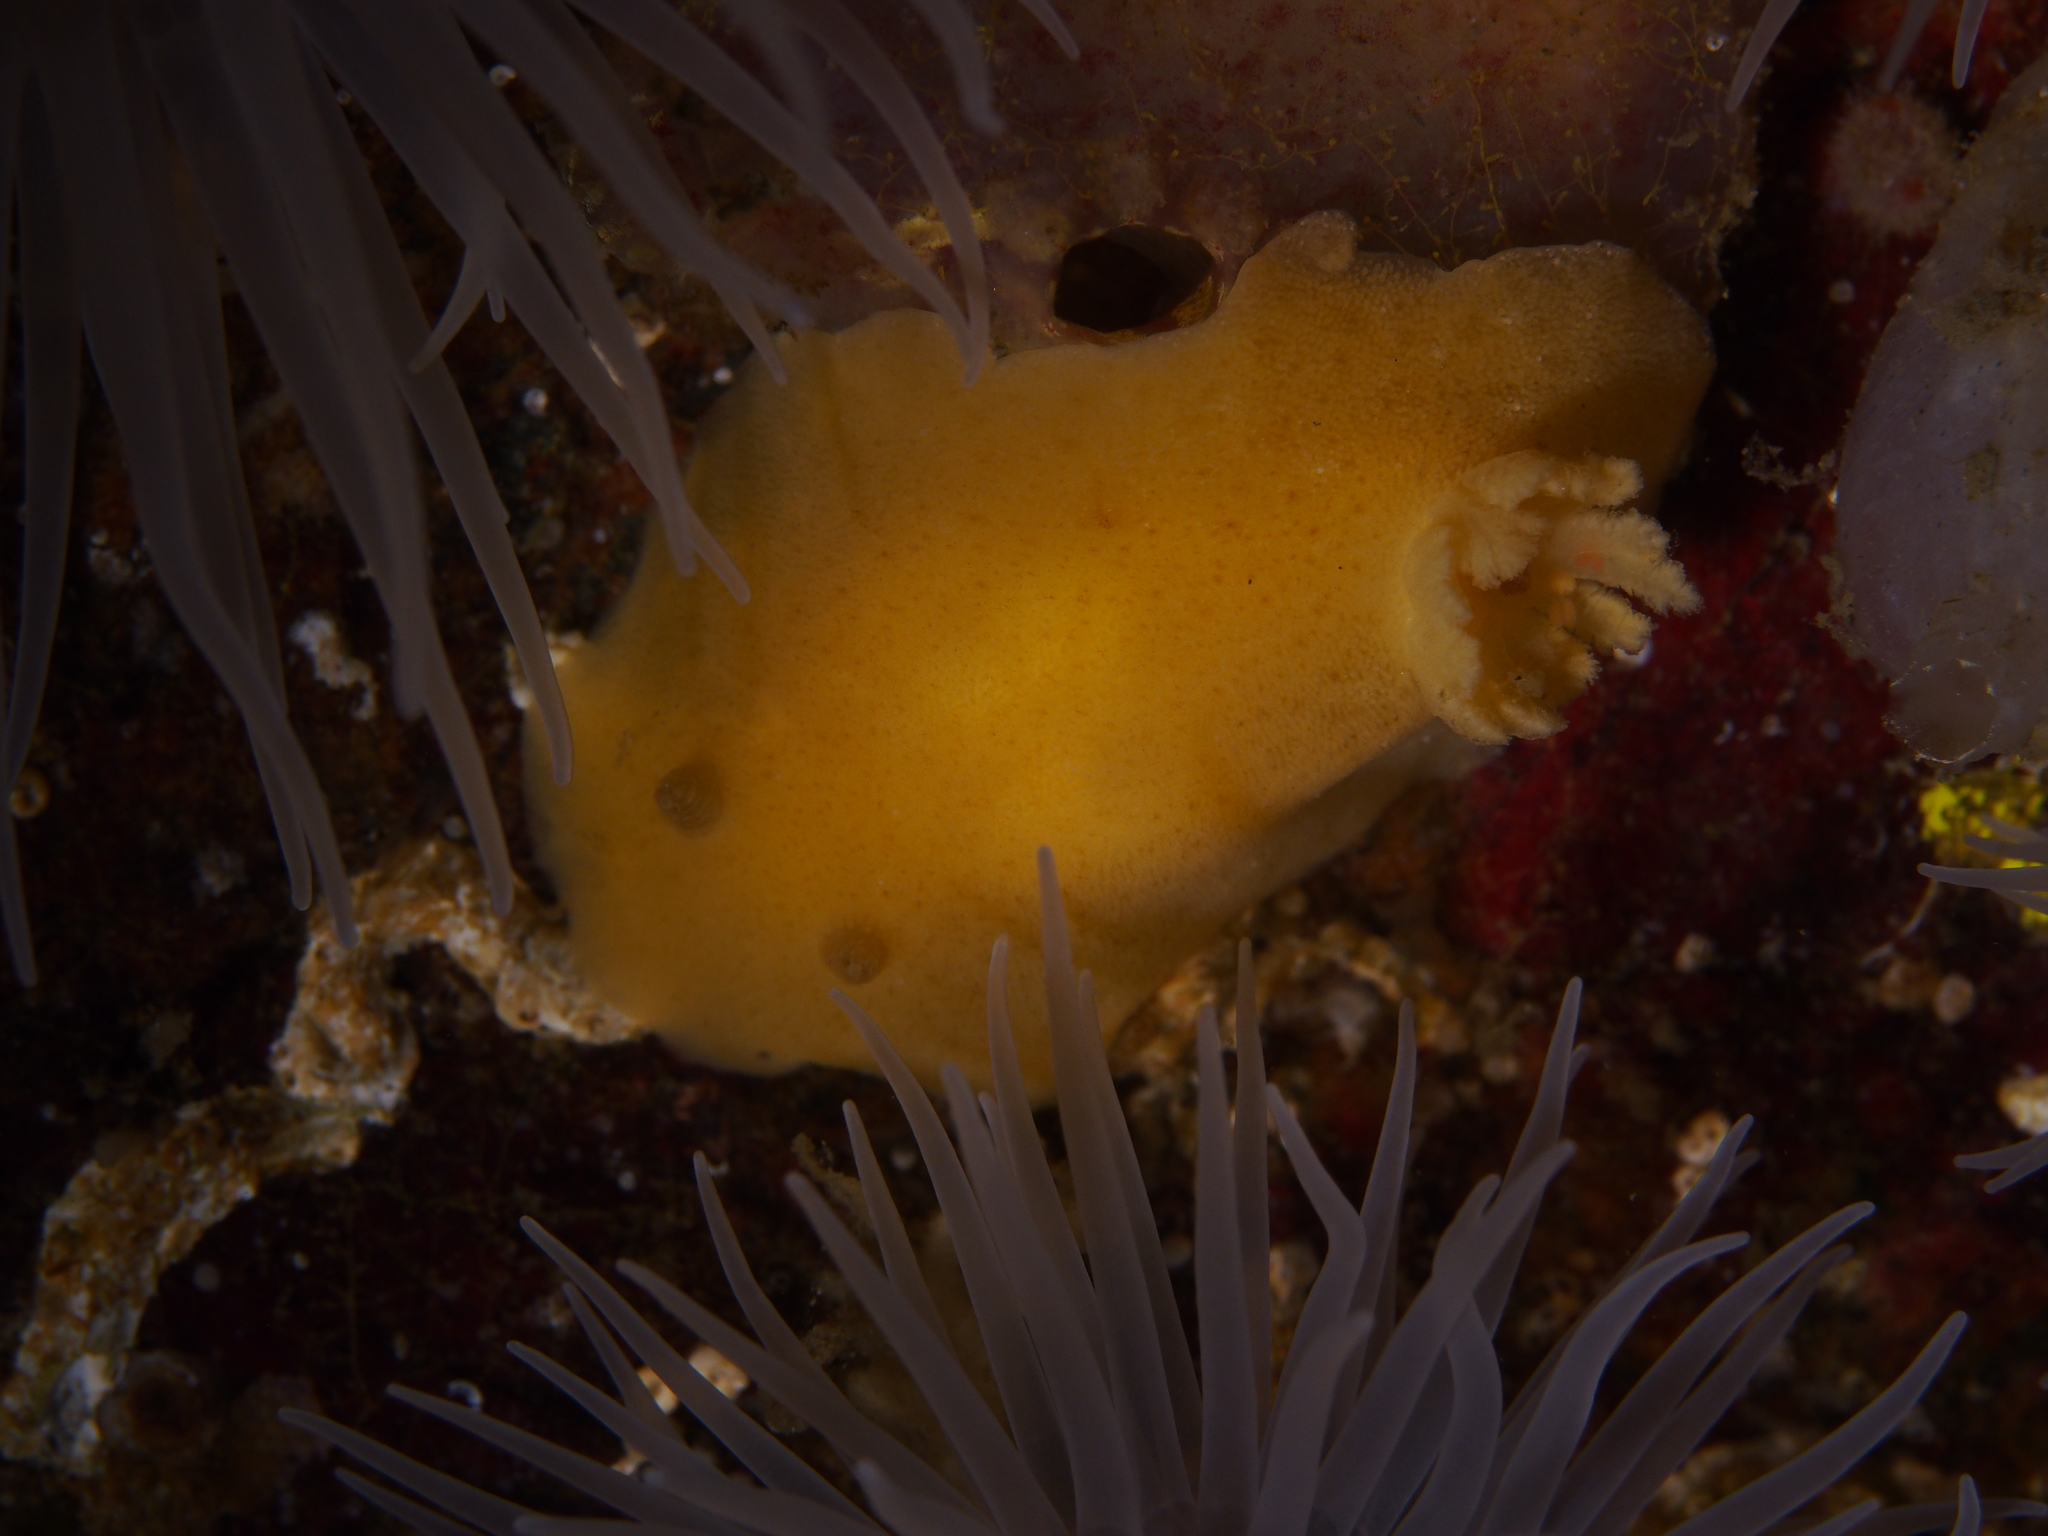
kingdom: Animalia
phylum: Mollusca
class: Gastropoda
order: Nudibranchia
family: Discodorididae
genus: Jorunna
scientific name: Jorunna tomentosa
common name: Grey sea slug
